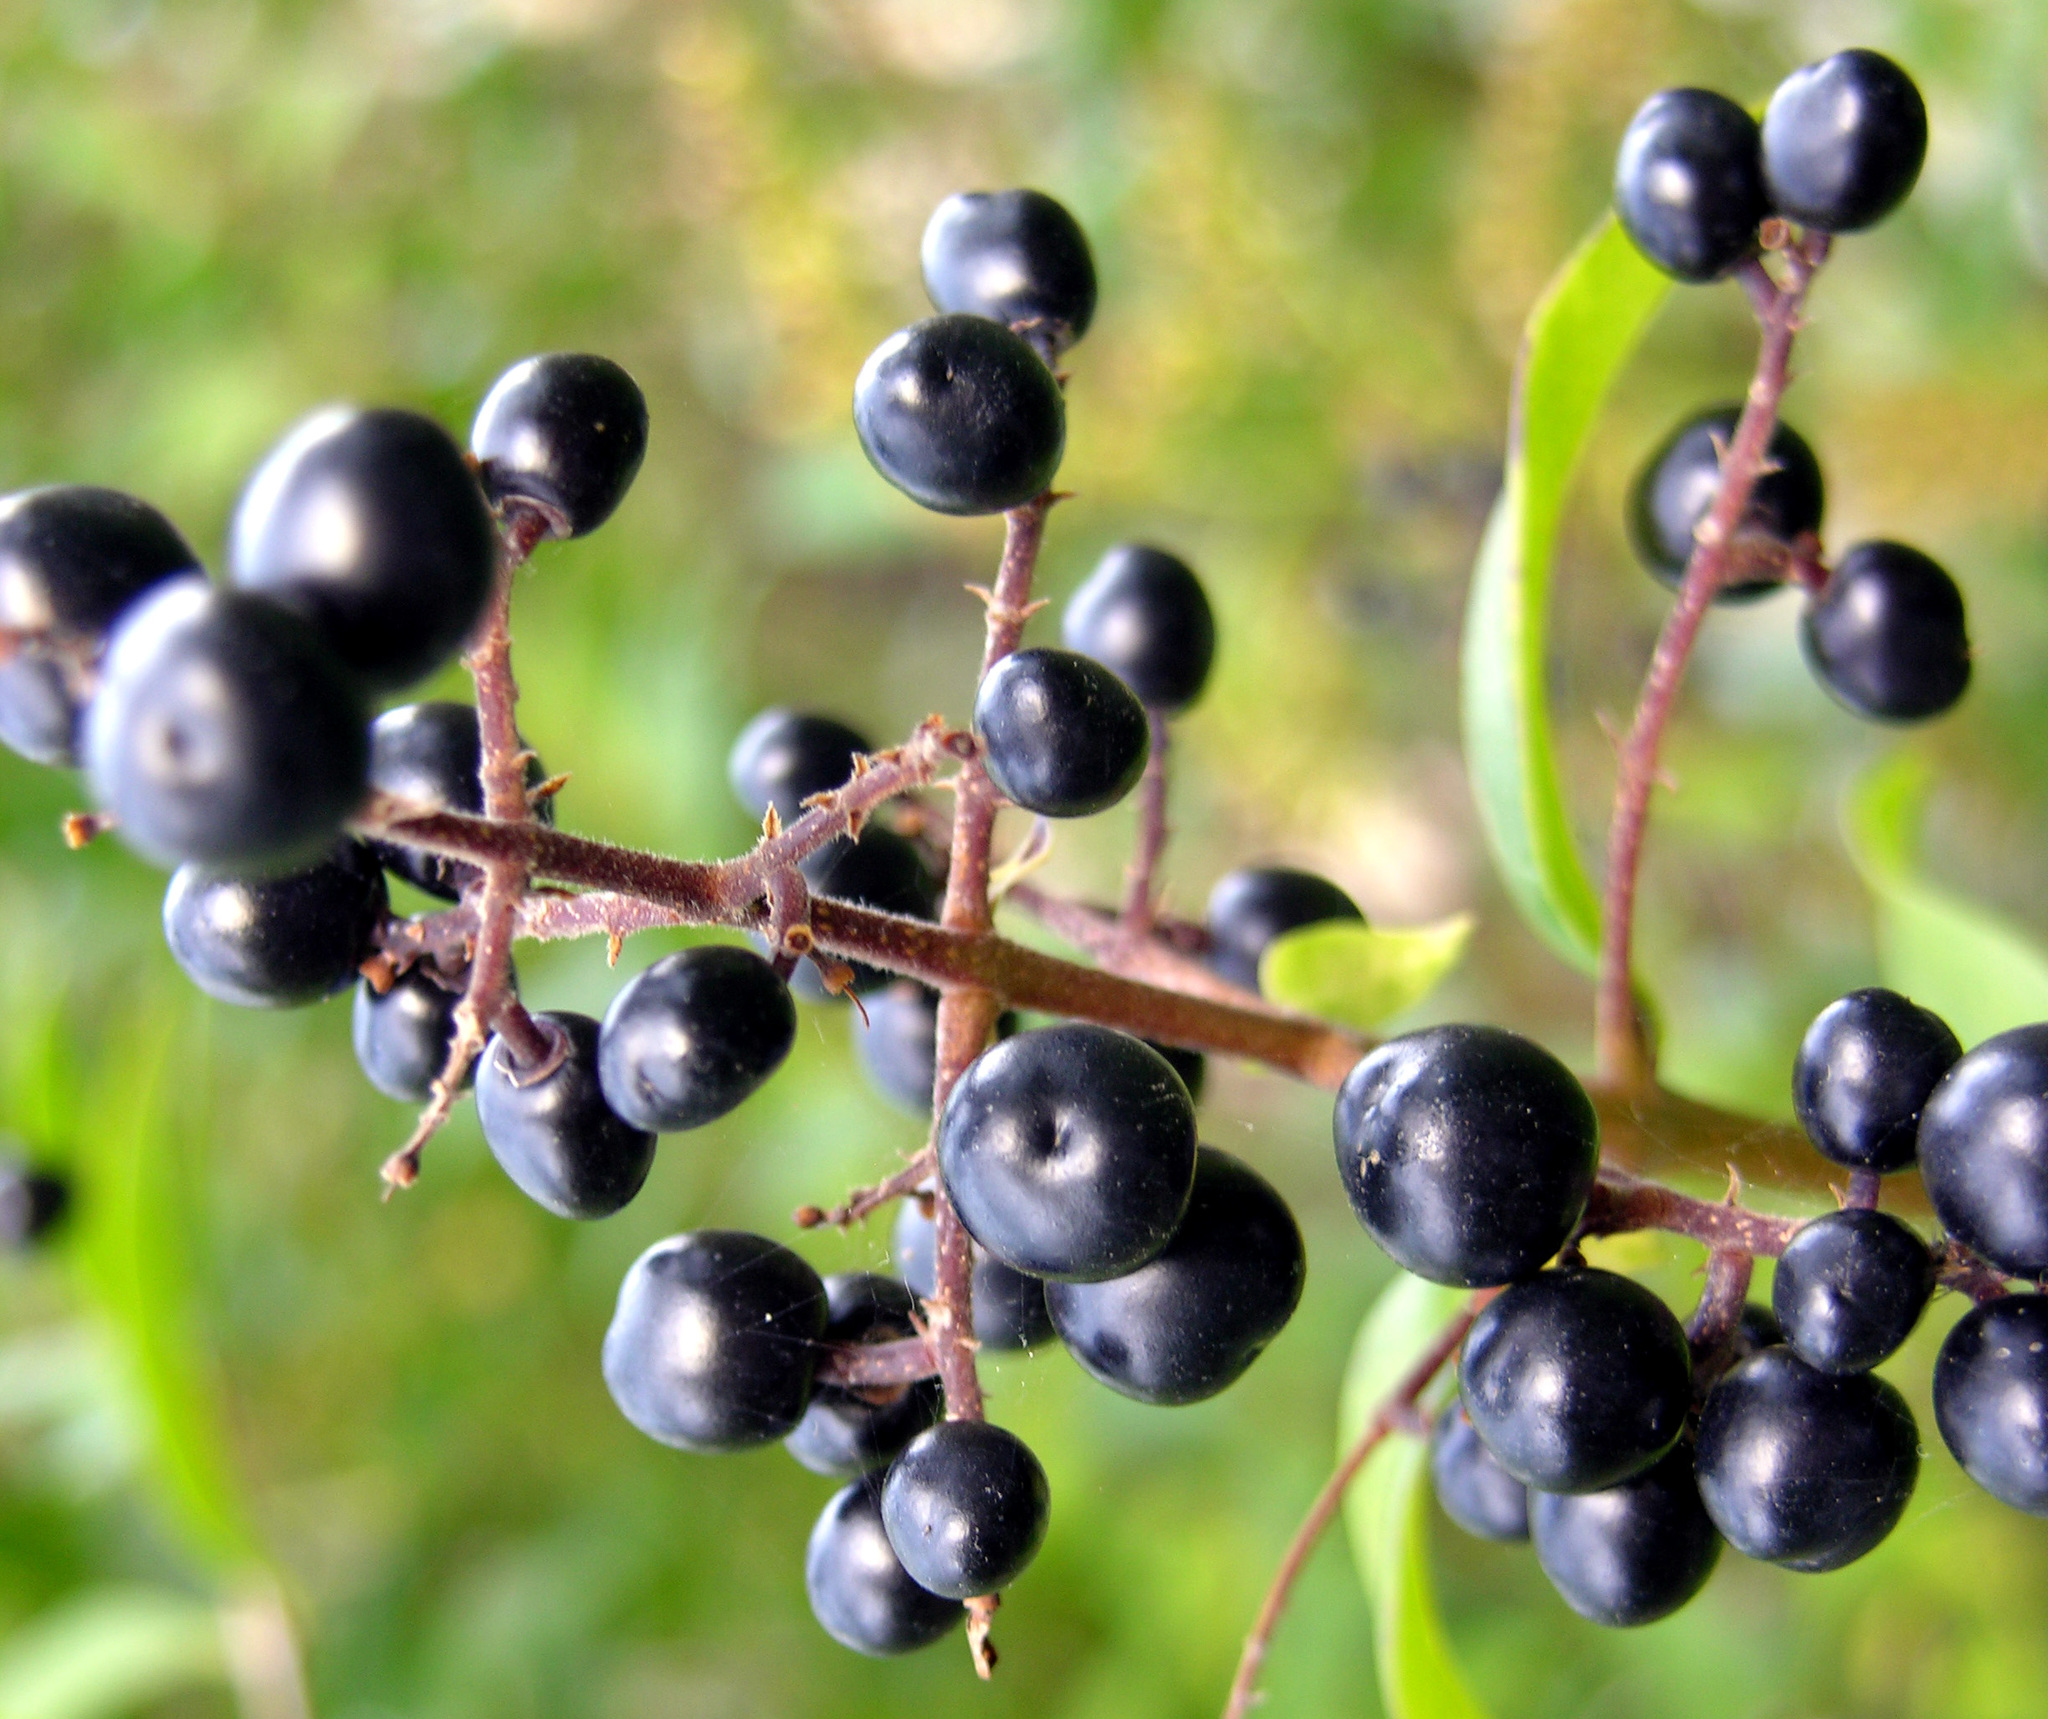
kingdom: Plantae
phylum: Tracheophyta
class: Magnoliopsida
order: Lamiales
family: Oleaceae
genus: Ligustrum
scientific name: Ligustrum vulgare
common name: Wild privet
